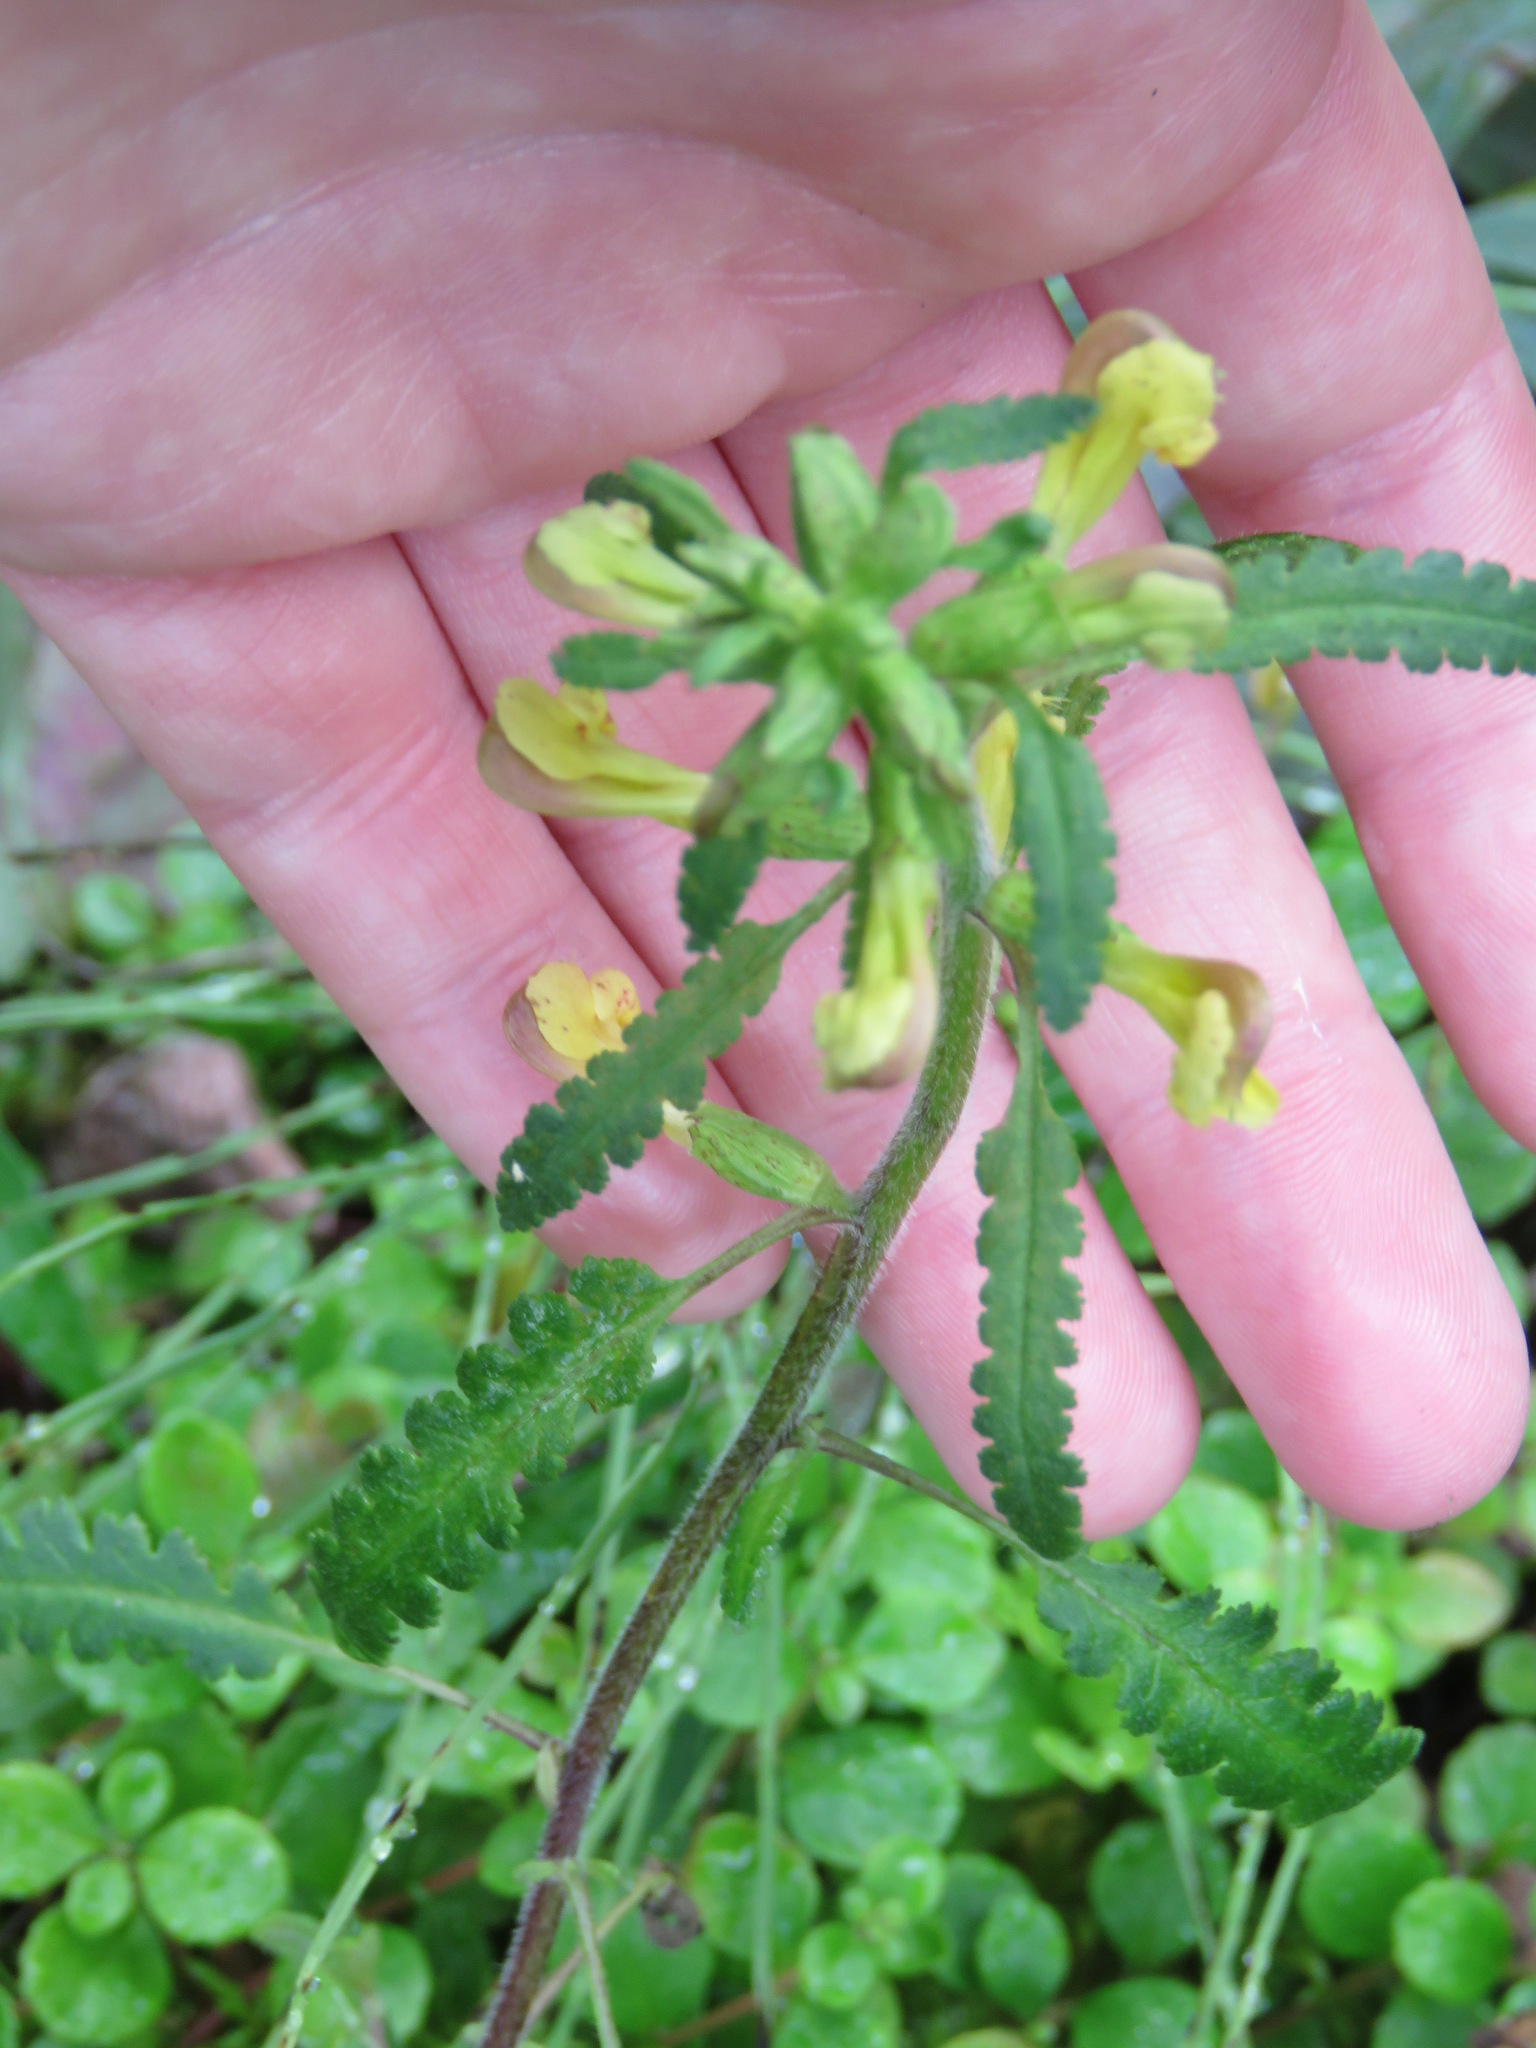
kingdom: Plantae
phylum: Tracheophyta
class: Magnoliopsida
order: Lamiales
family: Orobanchaceae
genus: Pedicularis
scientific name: Pedicularis labradorica
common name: Labrador lousewort
